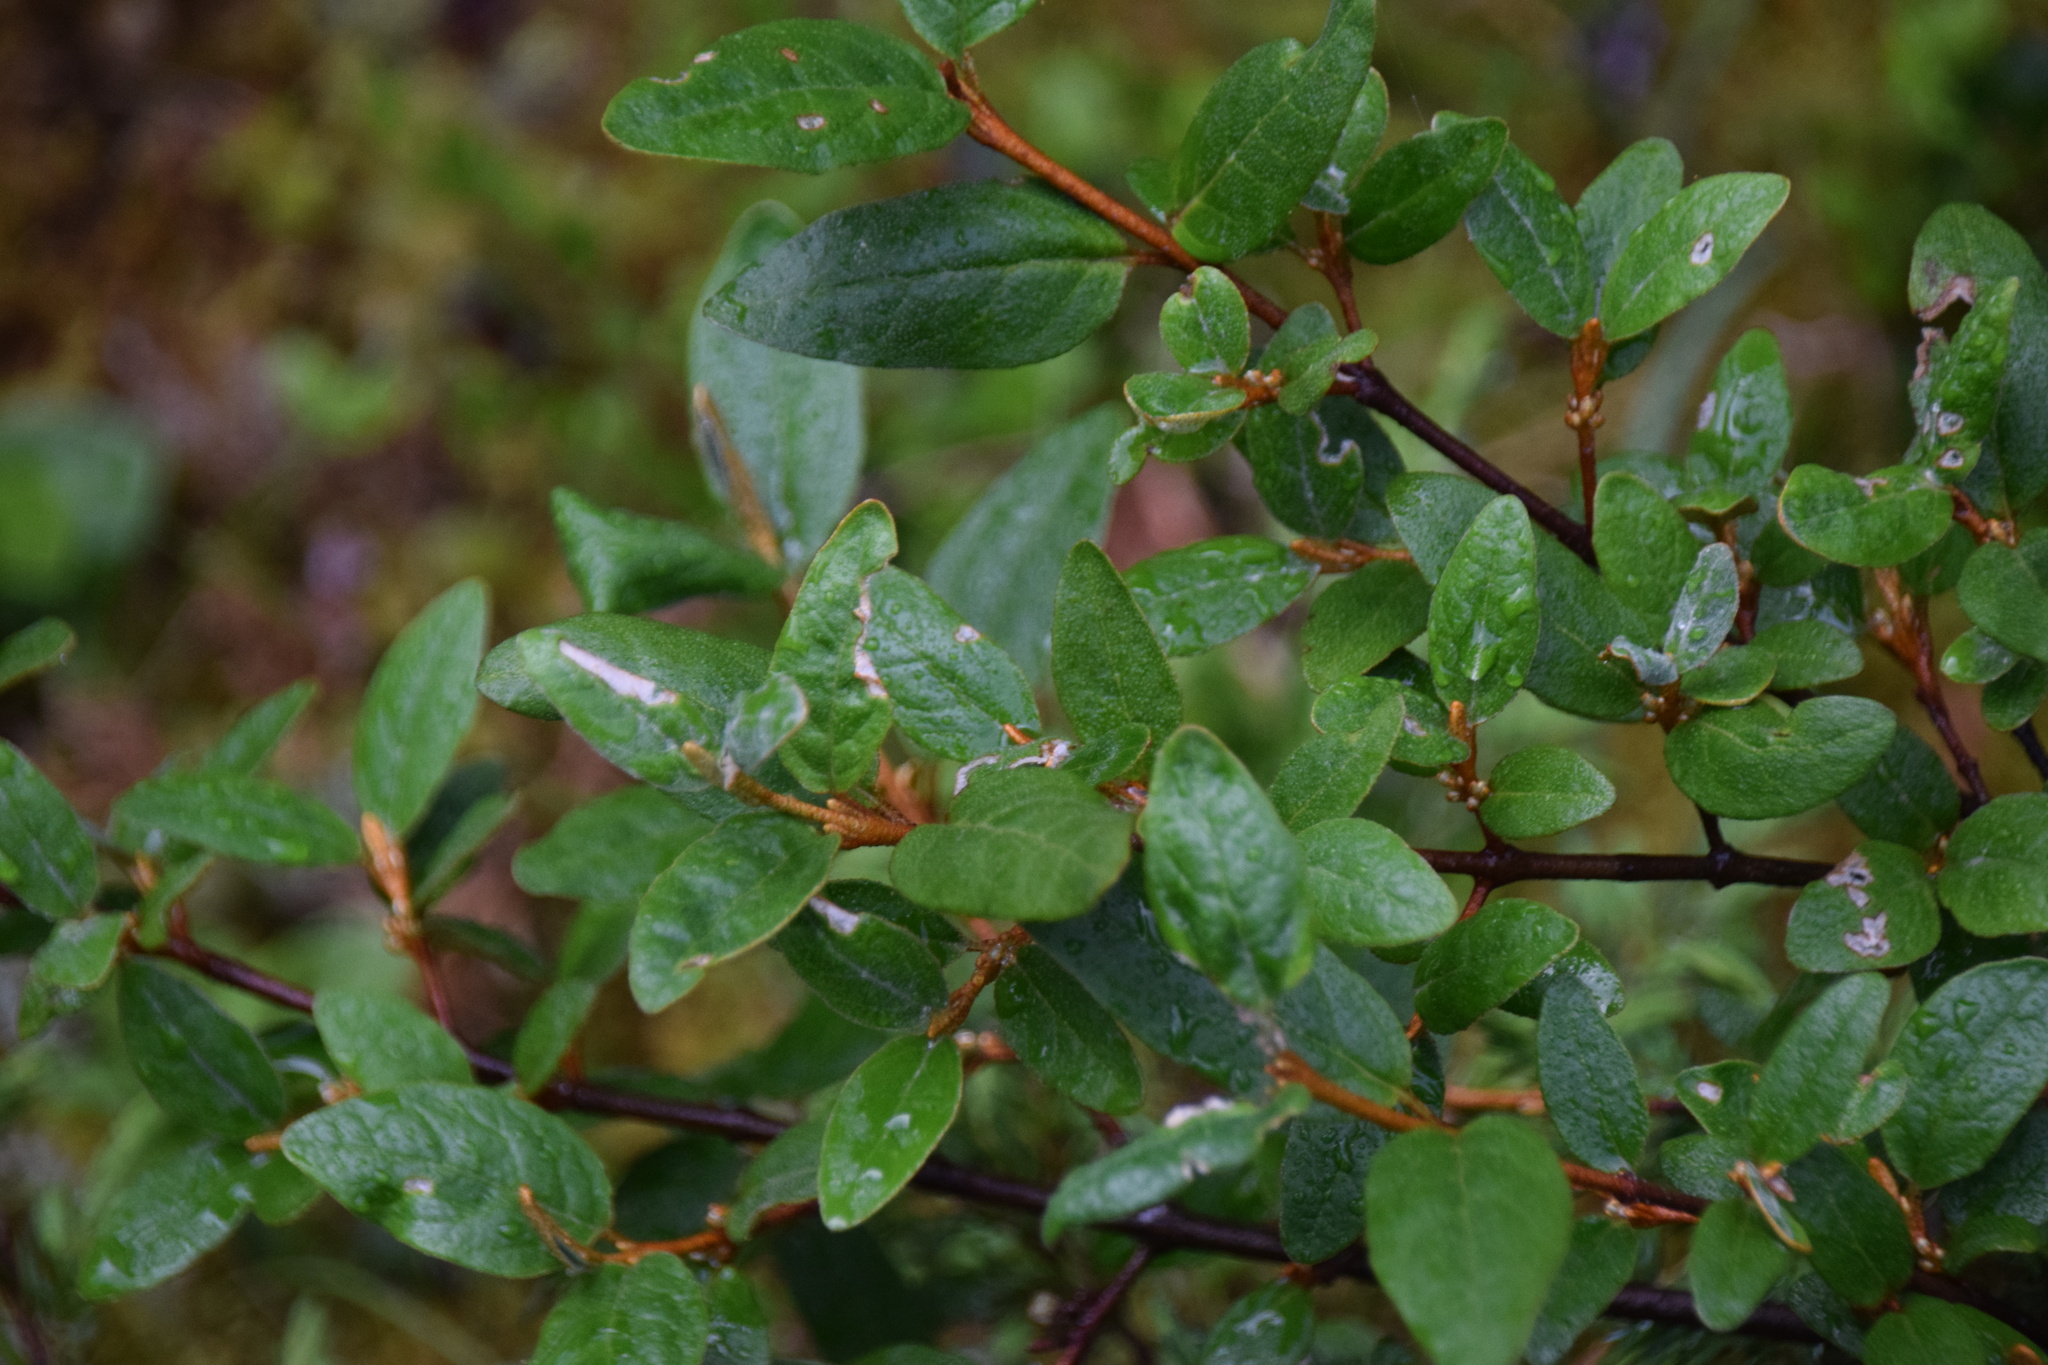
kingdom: Plantae
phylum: Tracheophyta
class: Magnoliopsida
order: Rosales
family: Elaeagnaceae
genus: Shepherdia
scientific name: Shepherdia canadensis
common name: Soapberry
